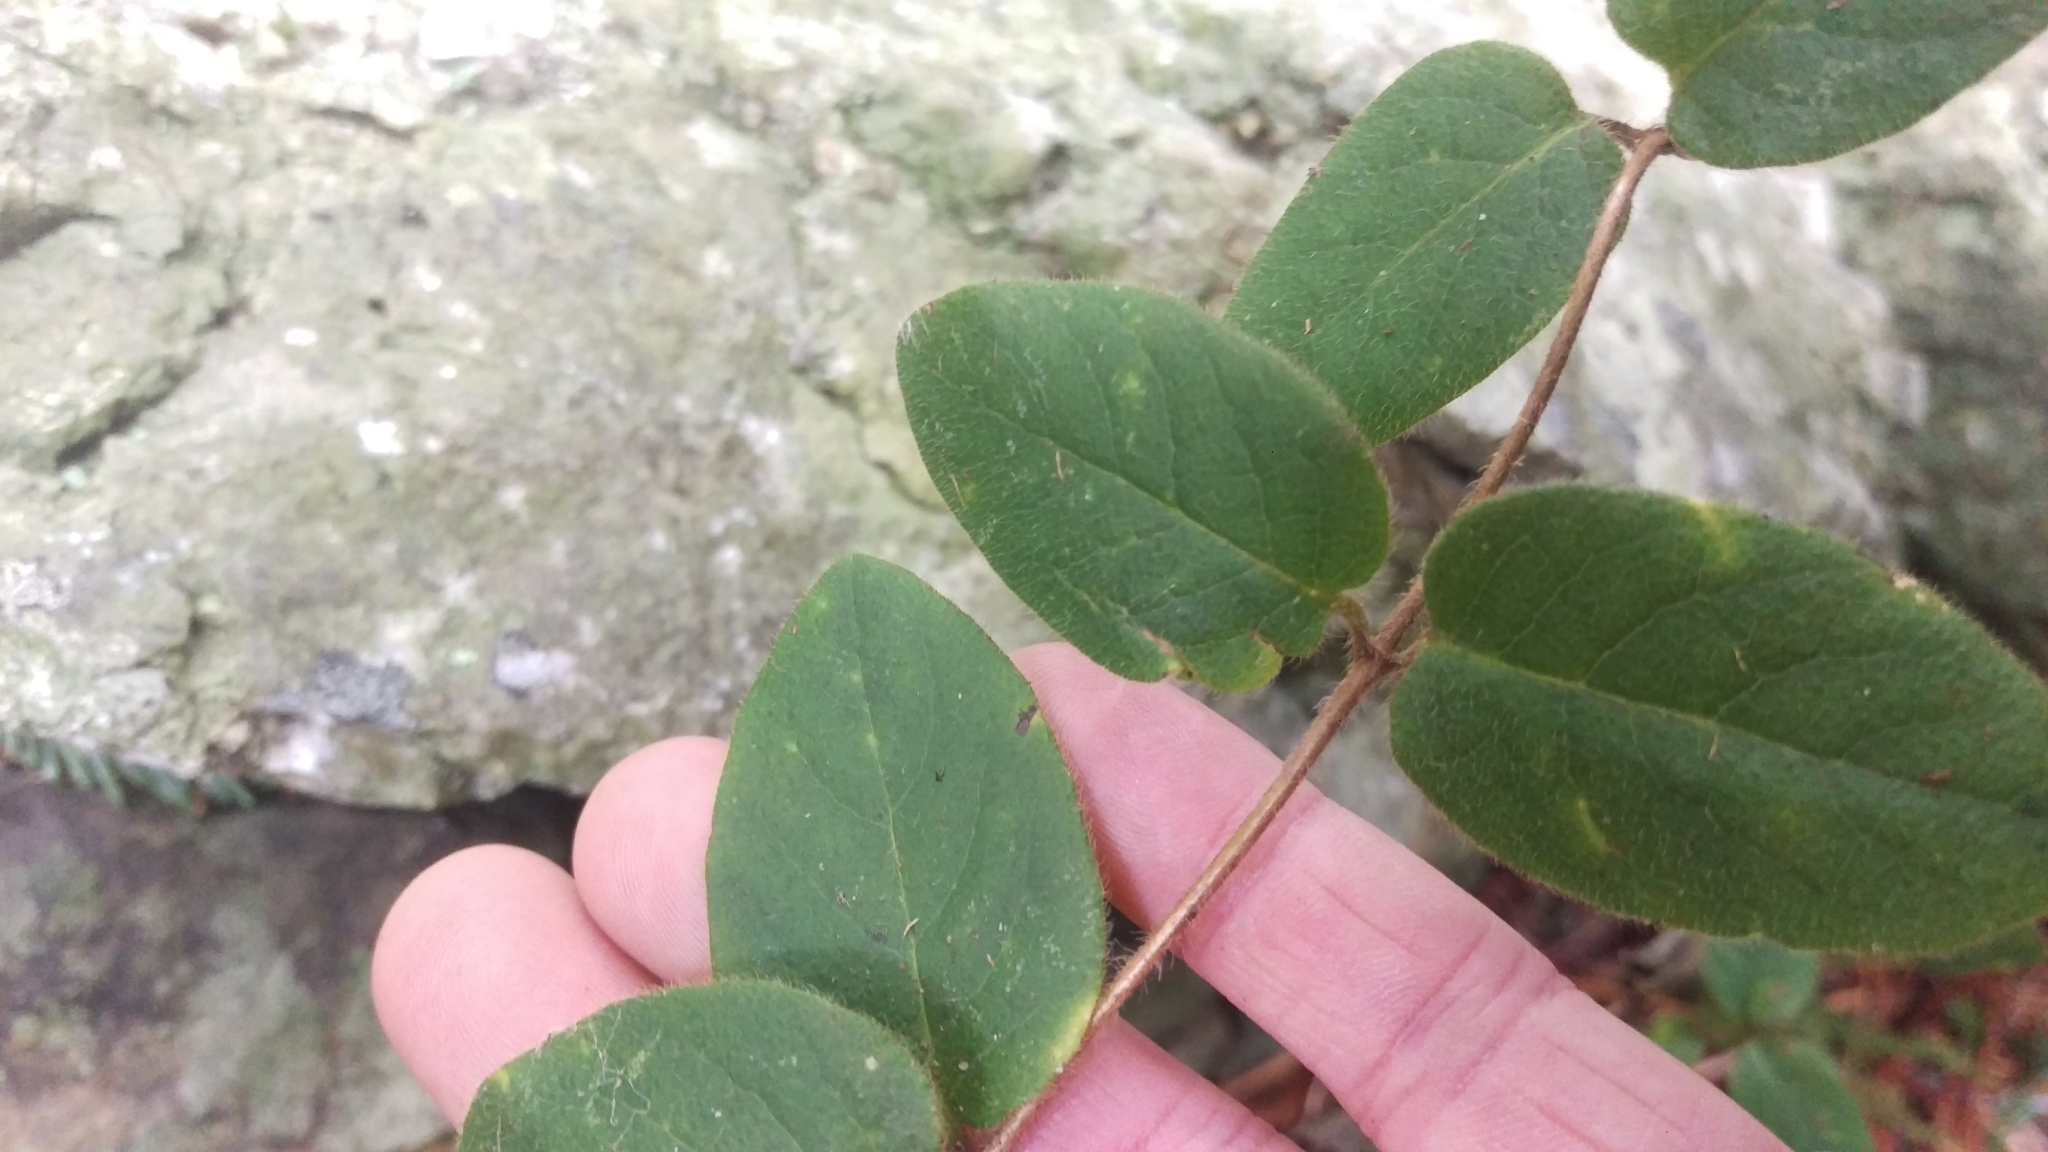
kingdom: Plantae
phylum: Tracheophyta
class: Magnoliopsida
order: Dipsacales
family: Caprifoliaceae
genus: Lonicera
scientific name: Lonicera hispidula
